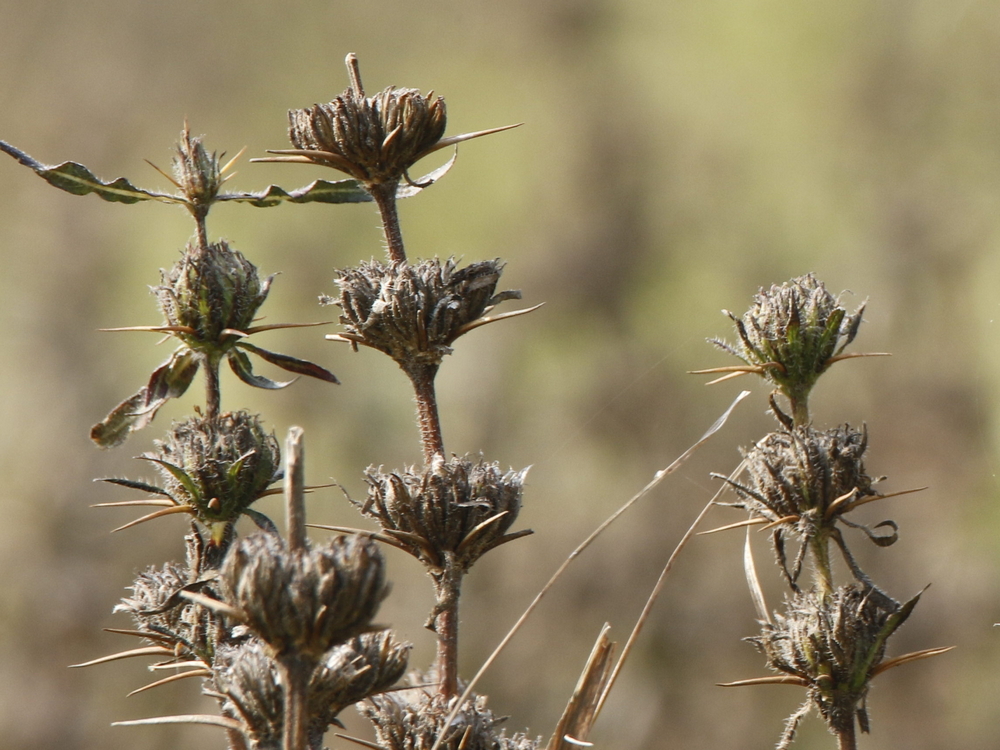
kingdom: Plantae
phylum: Tracheophyta
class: Magnoliopsida
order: Lamiales
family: Acanthaceae
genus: Hygrophila
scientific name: Hygrophila auriculata
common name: Hygrophila
